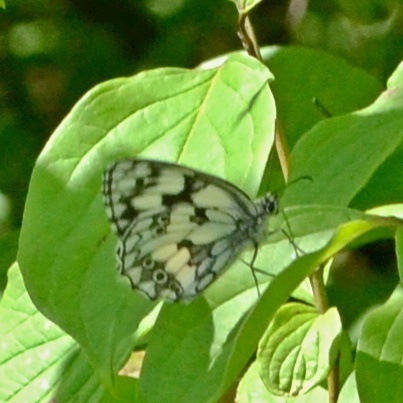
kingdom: Animalia
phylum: Arthropoda
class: Insecta
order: Lepidoptera
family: Nymphalidae
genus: Melanargia
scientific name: Melanargia galathea
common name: Marbled white
